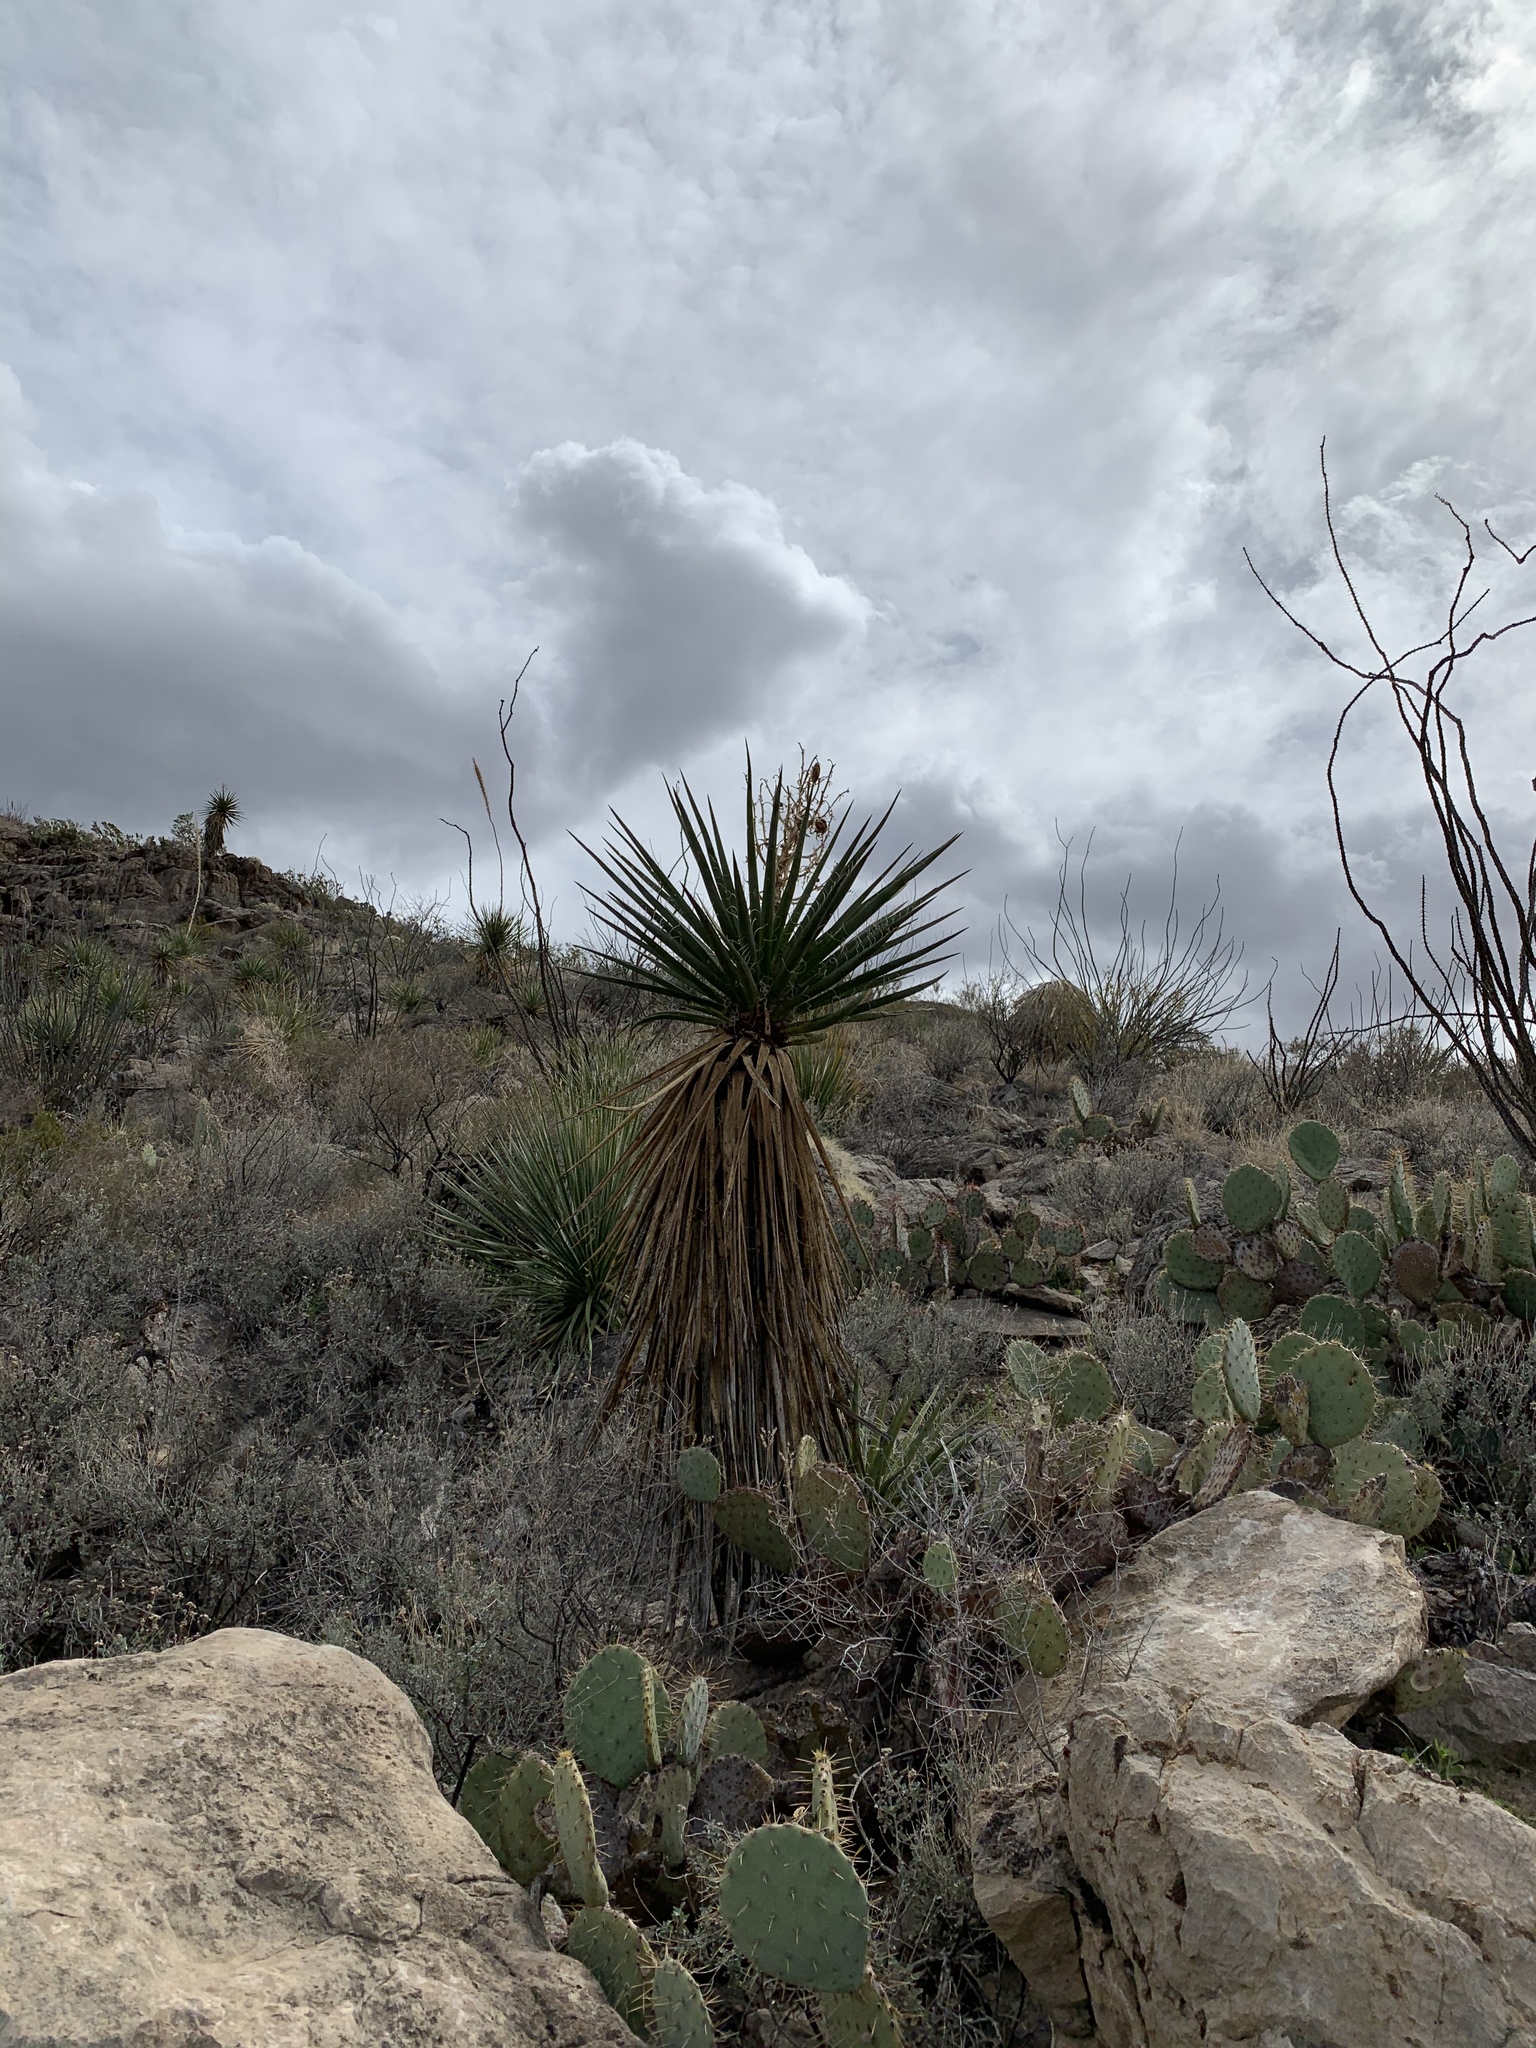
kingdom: Plantae
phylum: Tracheophyta
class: Liliopsida
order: Asparagales
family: Asparagaceae
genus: Yucca
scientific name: Yucca treculiana
